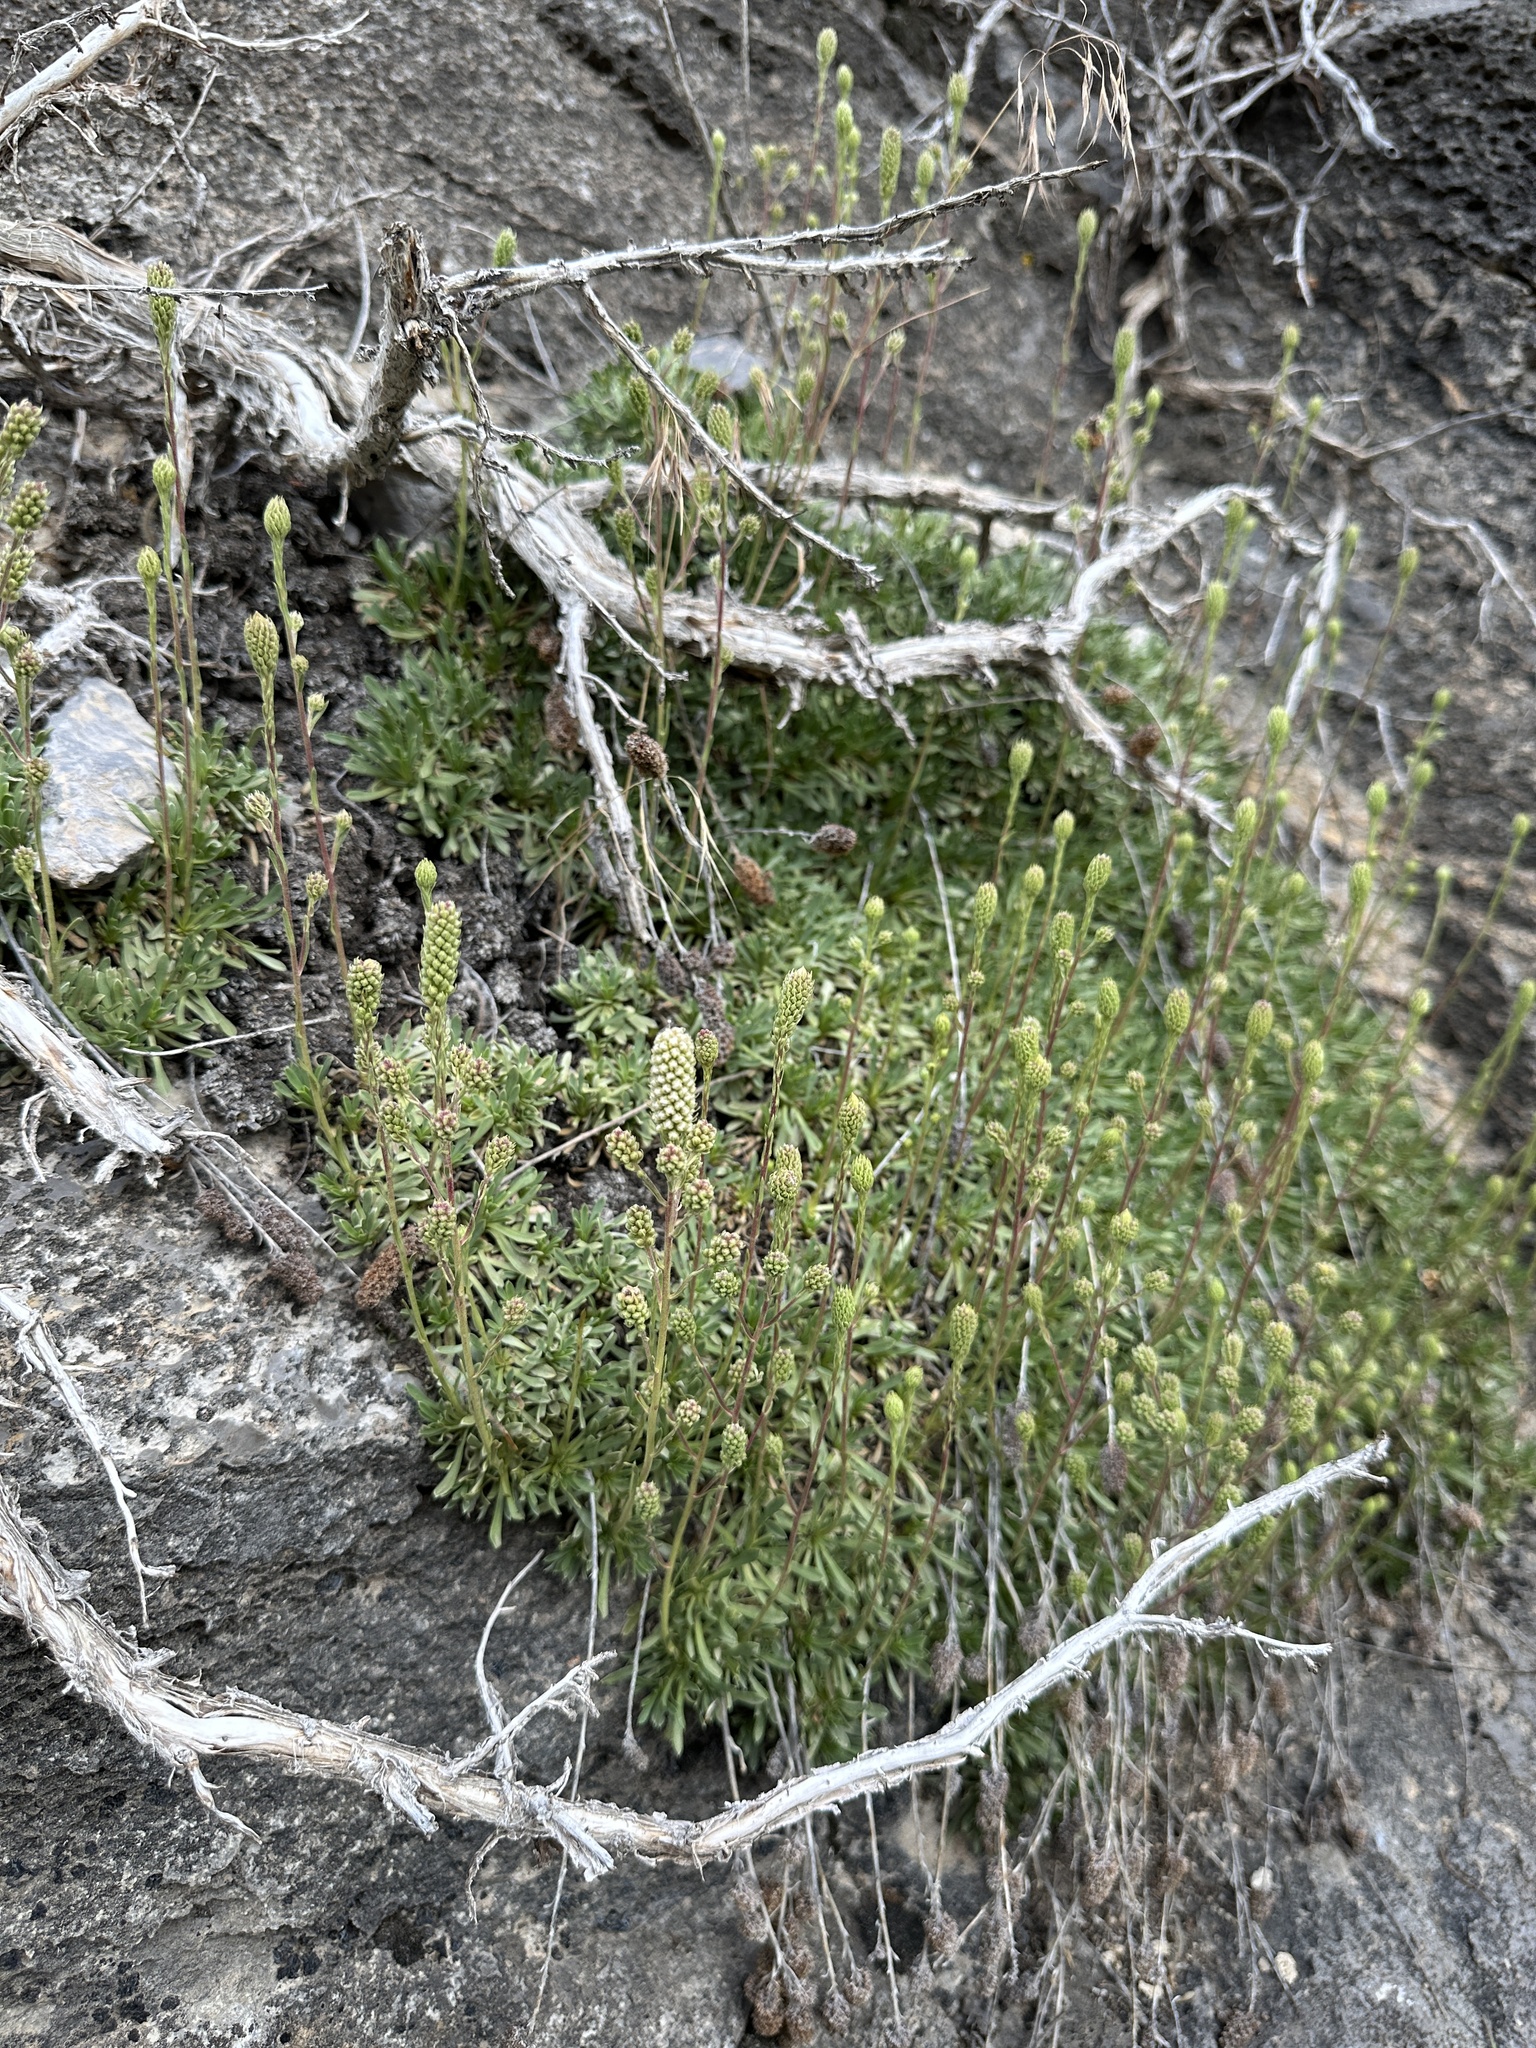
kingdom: Plantae
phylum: Tracheophyta
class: Magnoliopsida
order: Rosales
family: Rosaceae
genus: Petrophytum
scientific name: Petrophytum caespitosum
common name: Mat rockspirea
